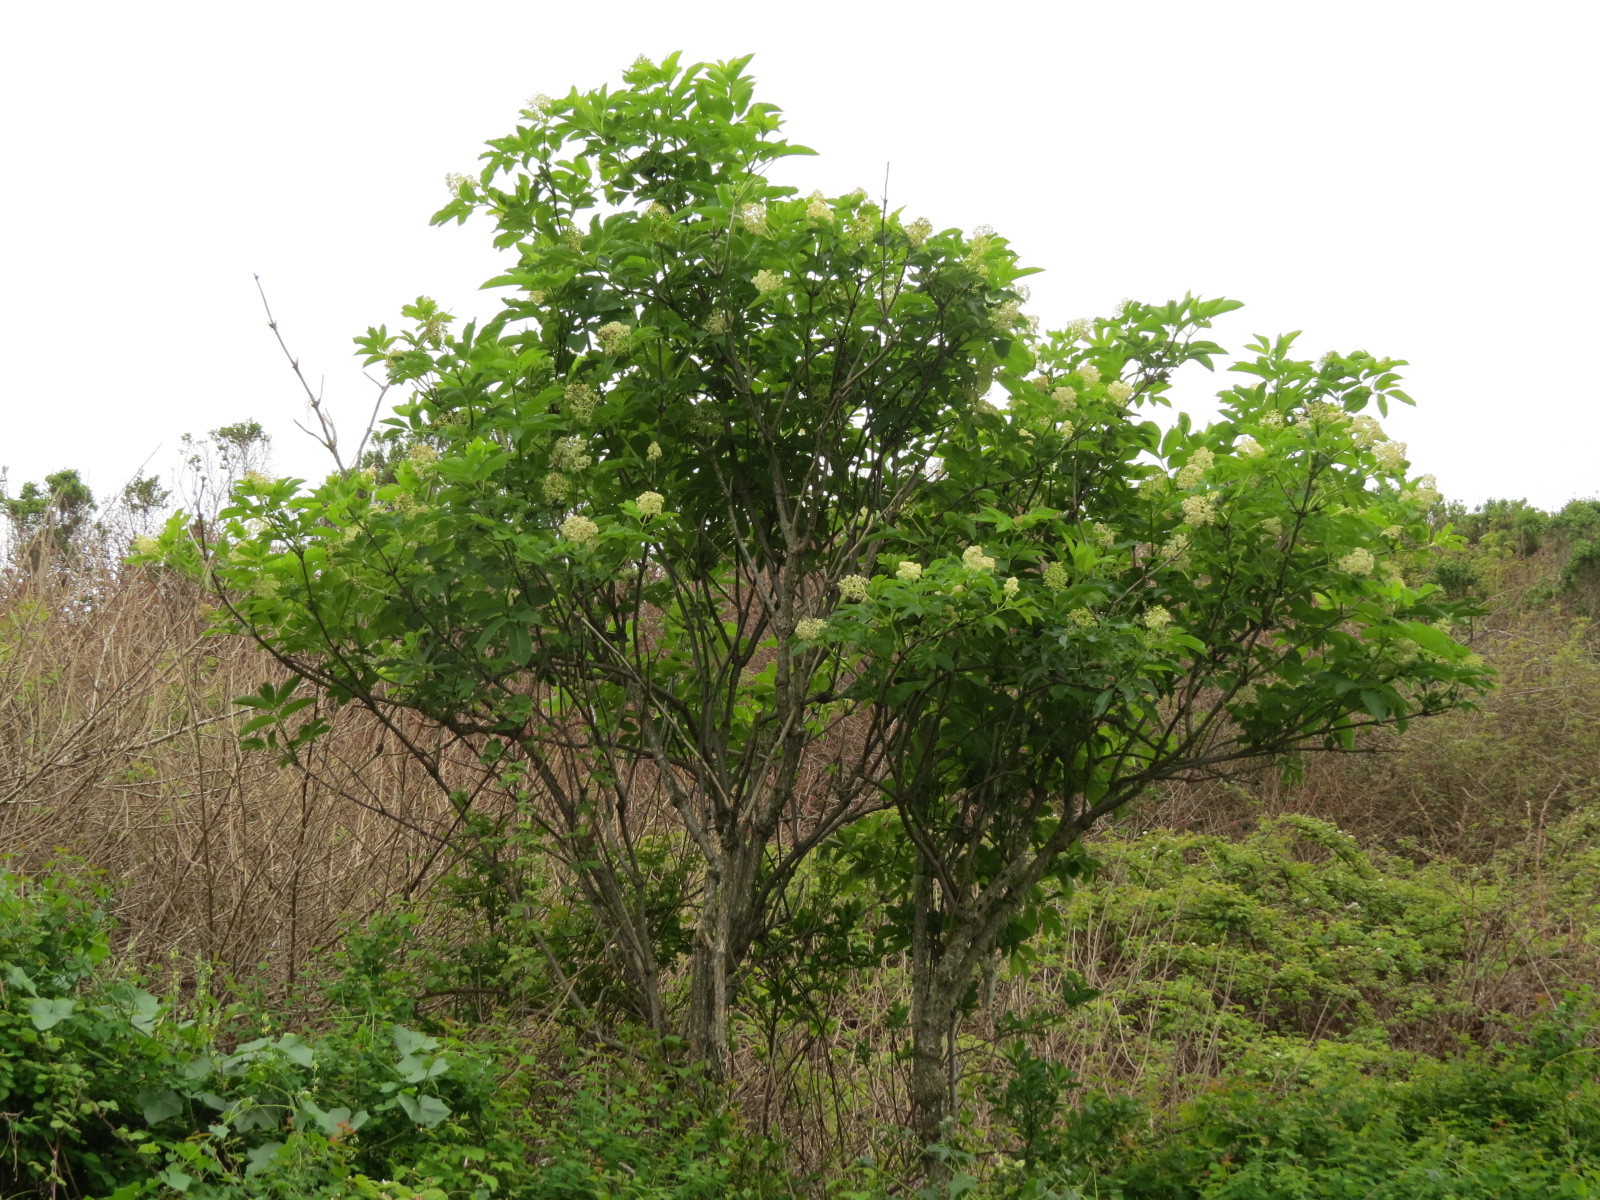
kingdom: Plantae
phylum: Tracheophyta
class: Magnoliopsida
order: Dipsacales
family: Viburnaceae
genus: Sambucus
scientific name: Sambucus racemosa
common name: Red-berried elder
